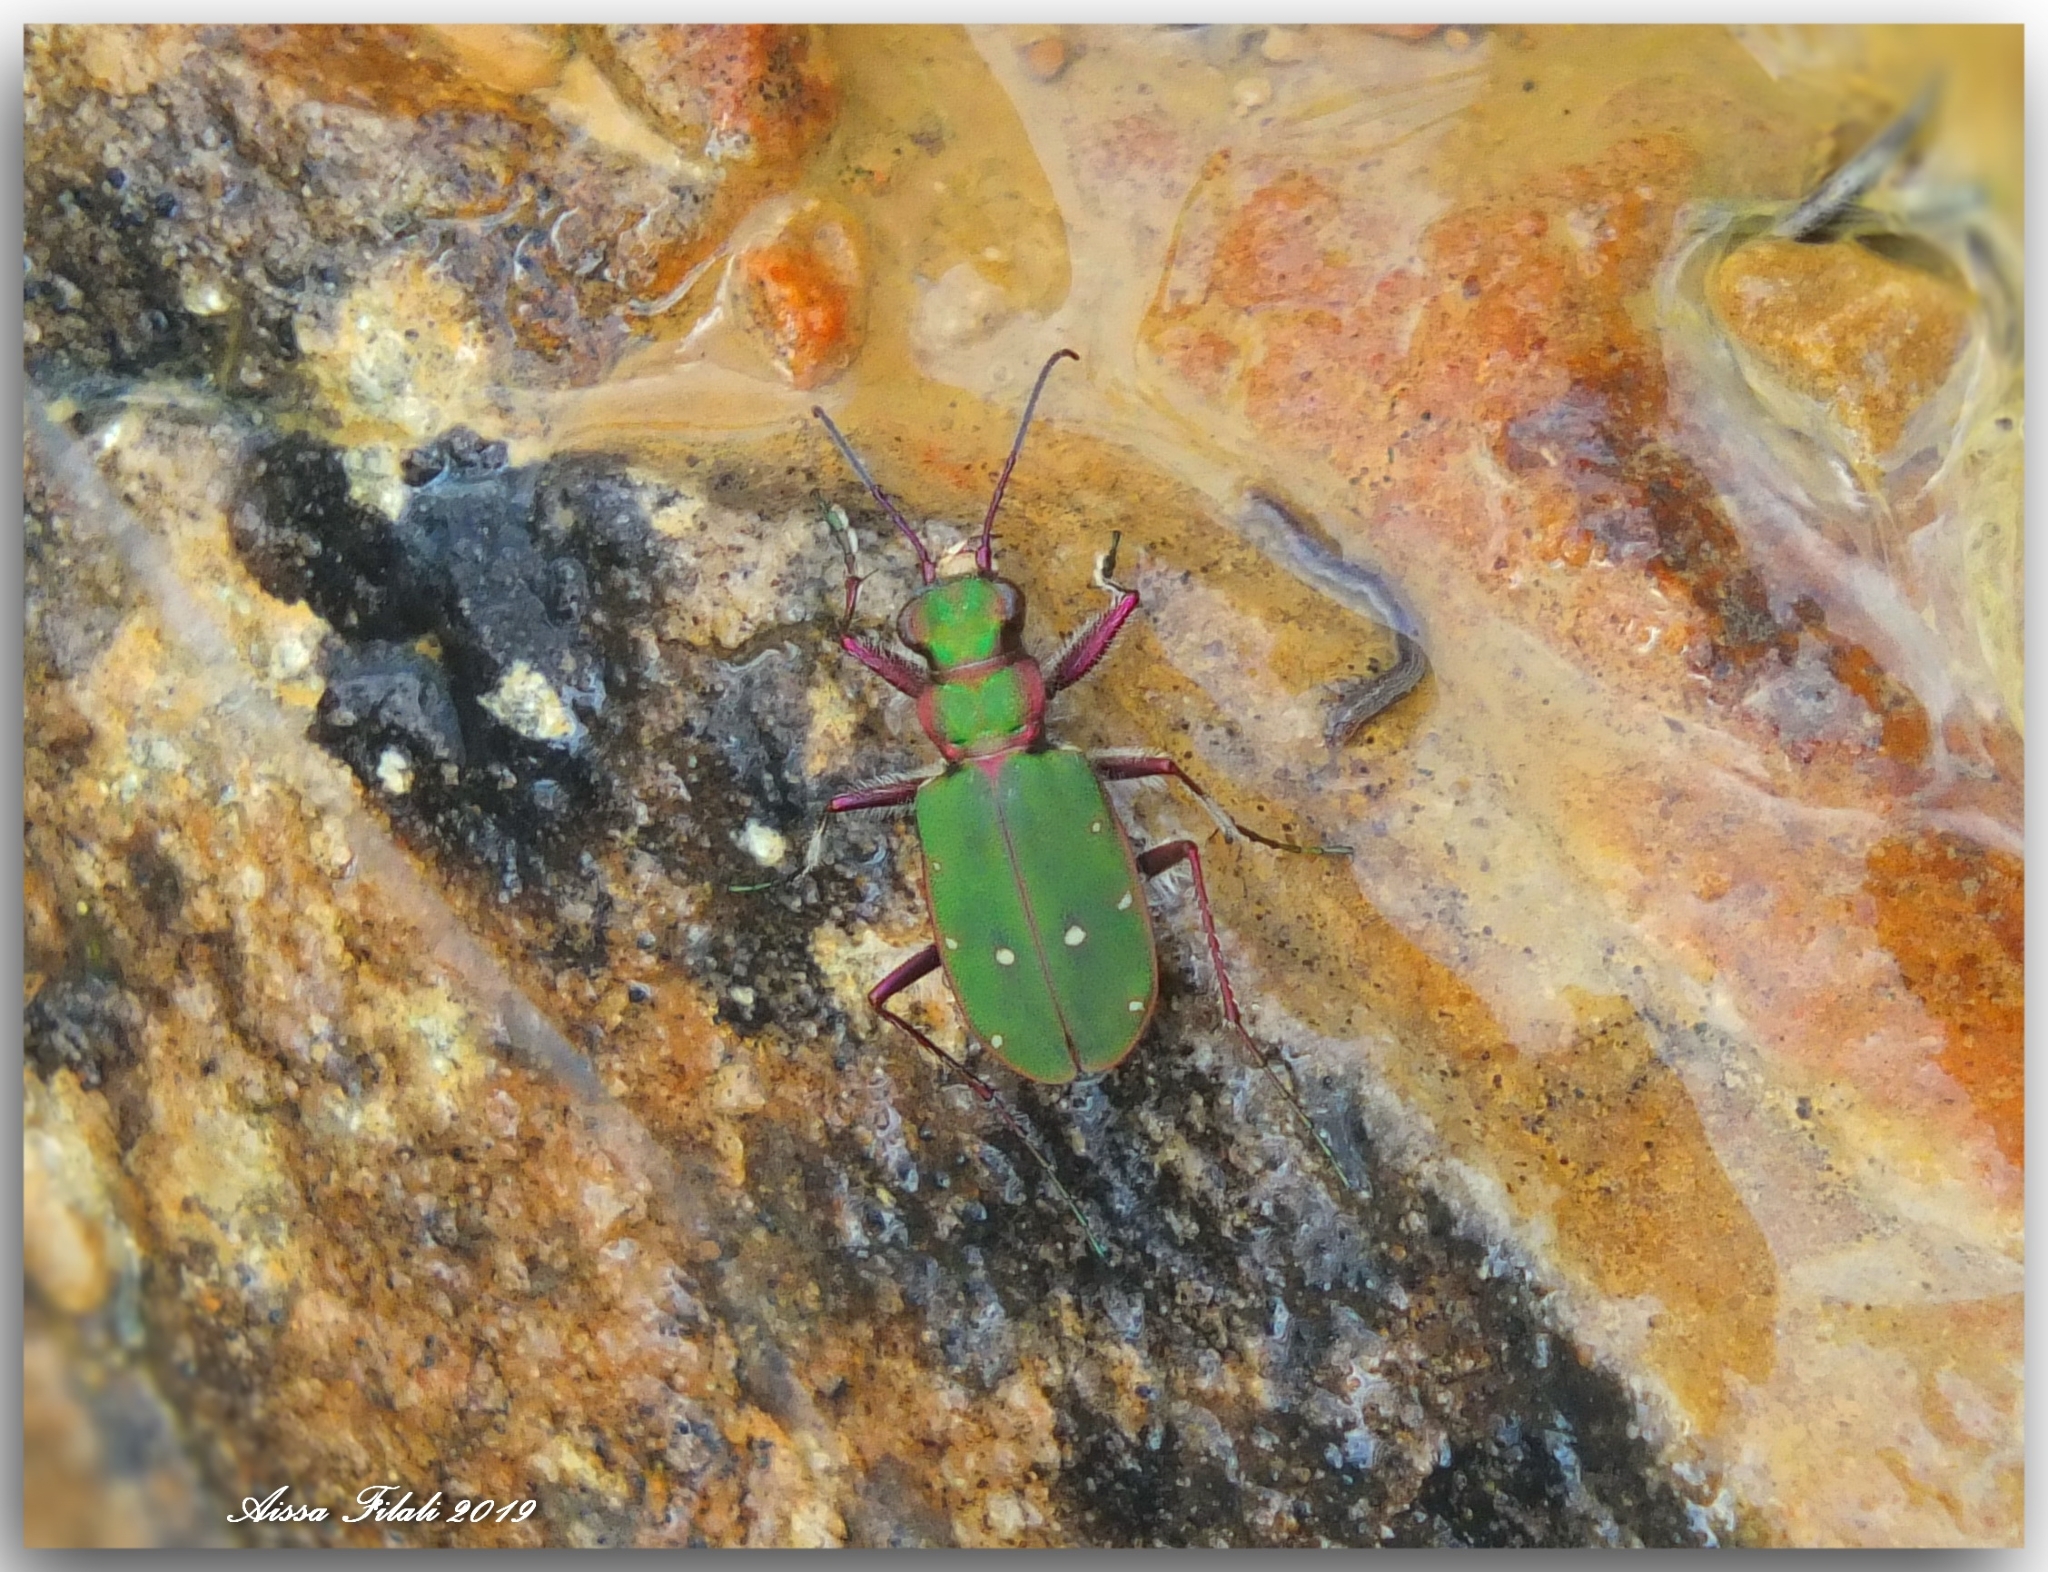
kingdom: Animalia
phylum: Arthropoda
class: Insecta
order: Coleoptera
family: Carabidae
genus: Cicindela
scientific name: Cicindela campestris
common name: Common tiger beetle
